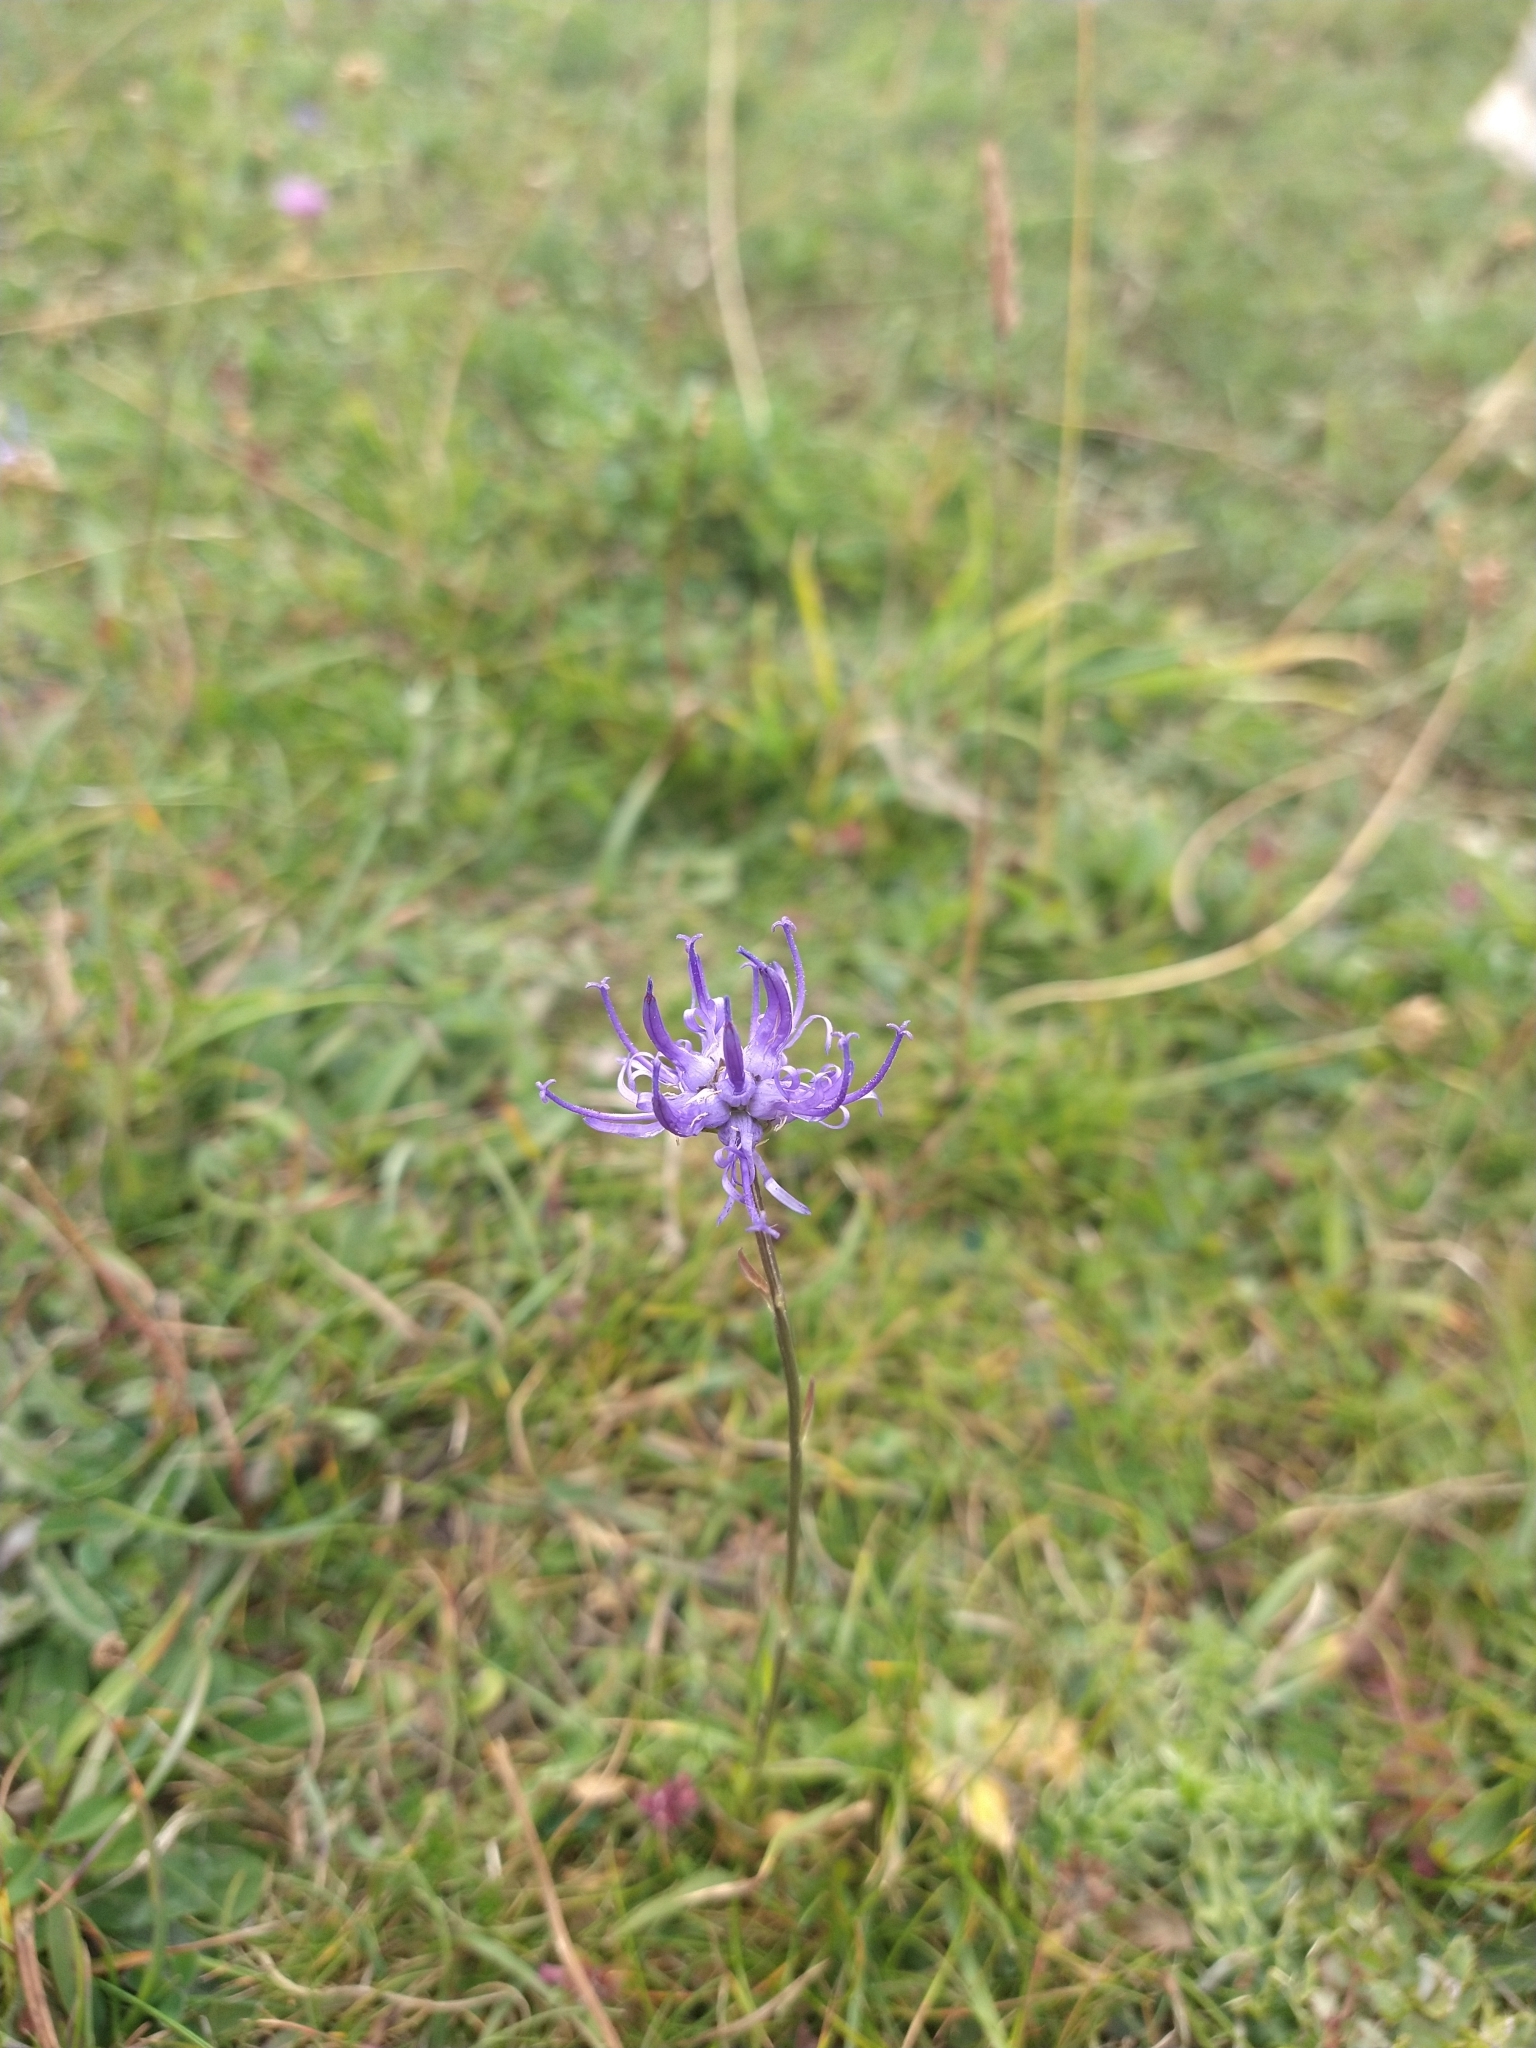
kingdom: Plantae
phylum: Tracheophyta
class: Magnoliopsida
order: Asterales
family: Campanulaceae
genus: Phyteuma
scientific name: Phyteuma orbiculare
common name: Round-headed rampion
